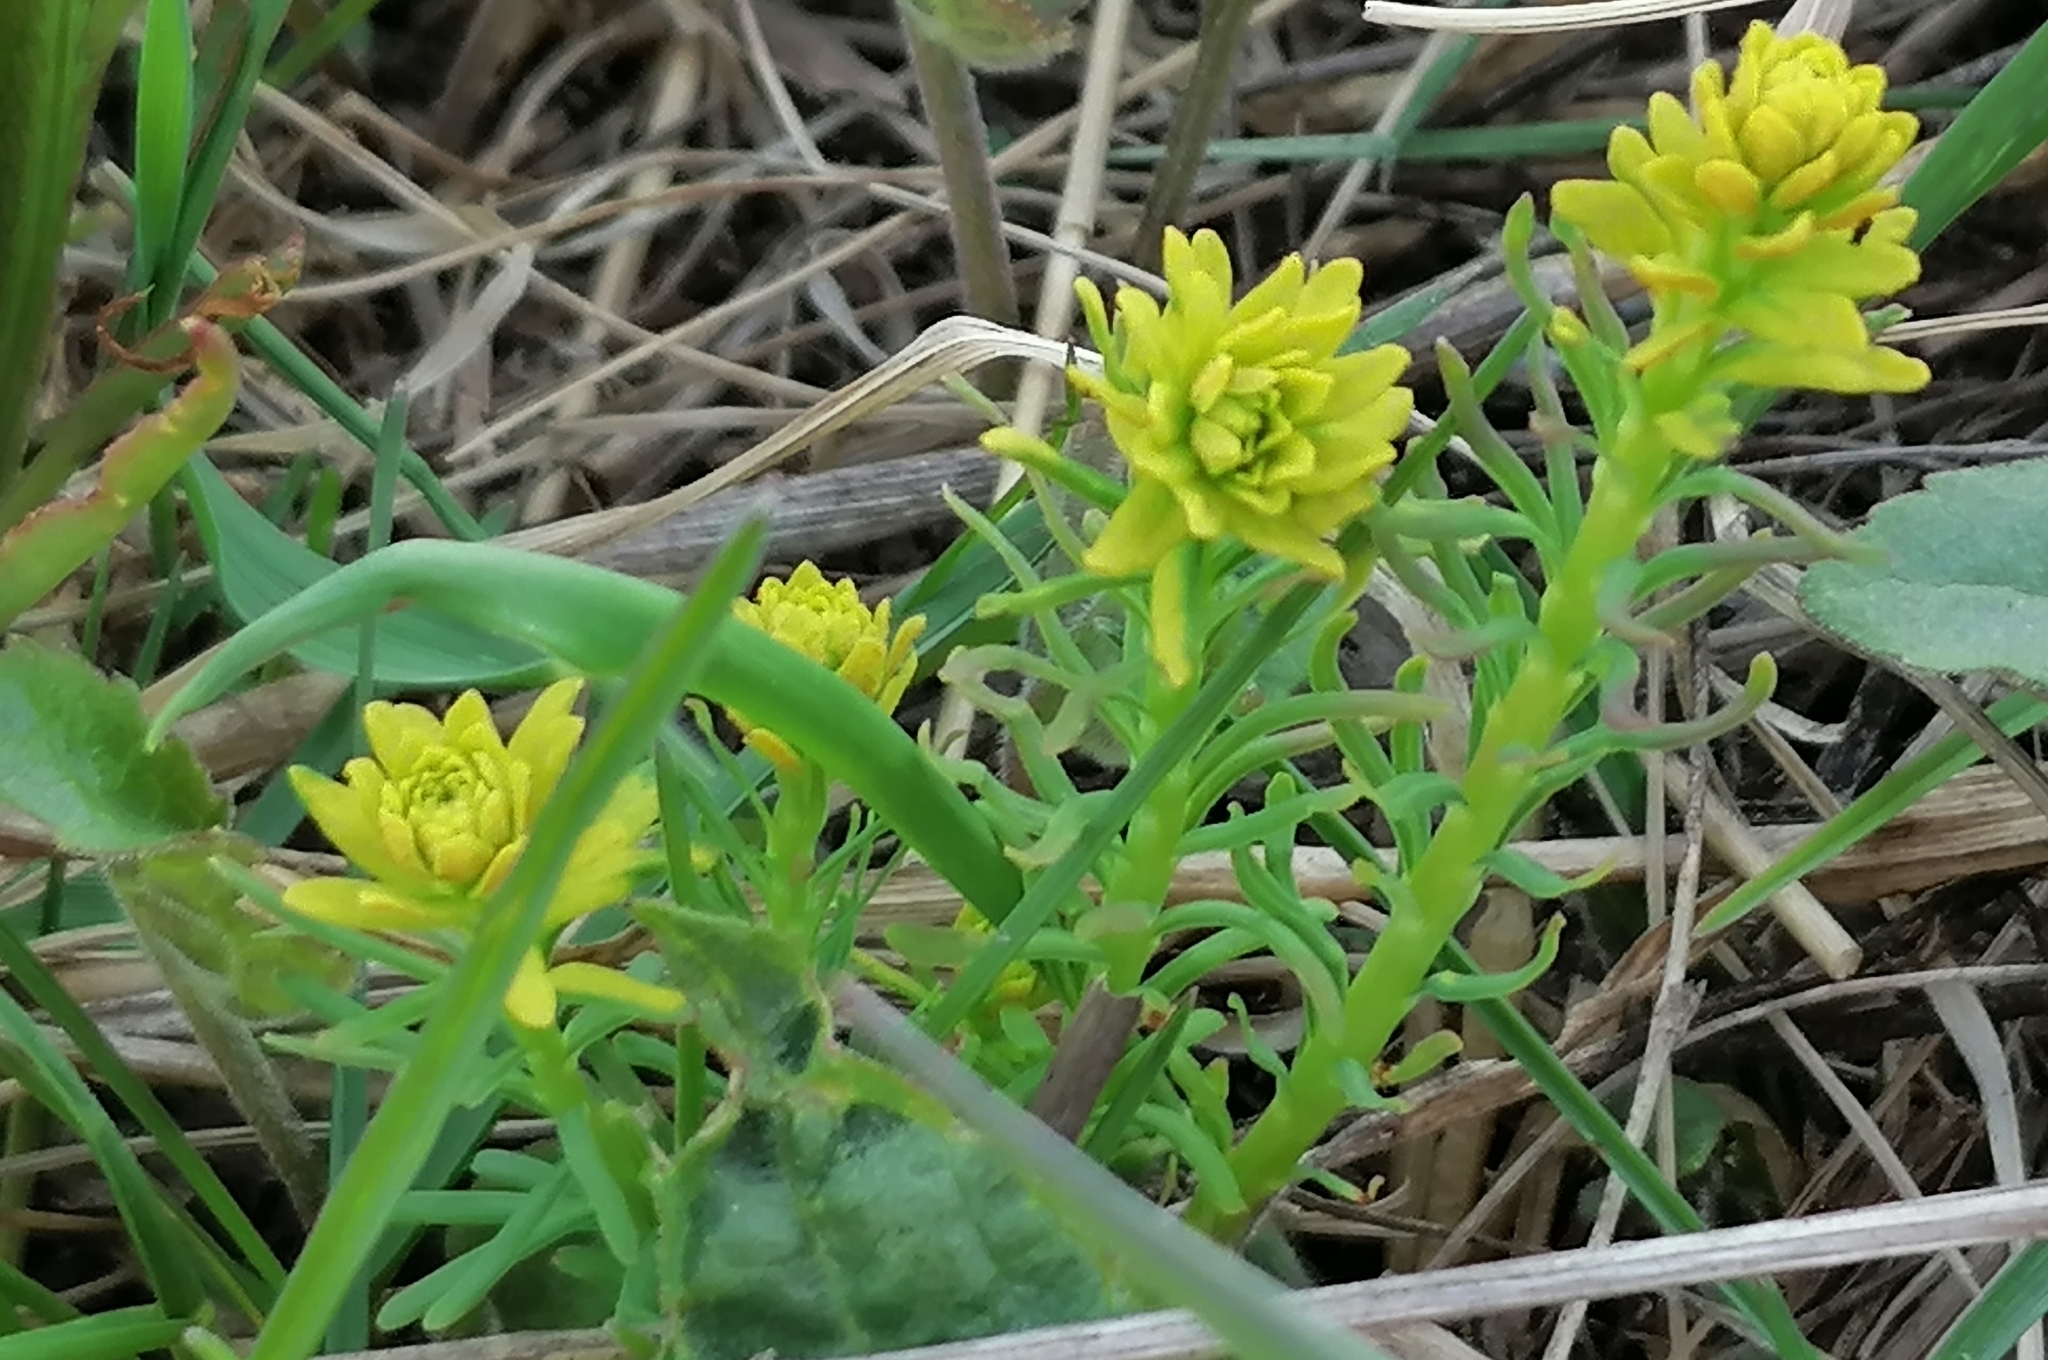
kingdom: Plantae
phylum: Tracheophyta
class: Magnoliopsida
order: Malpighiales
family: Euphorbiaceae
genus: Euphorbia
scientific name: Euphorbia cyparissias
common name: Cypress spurge
